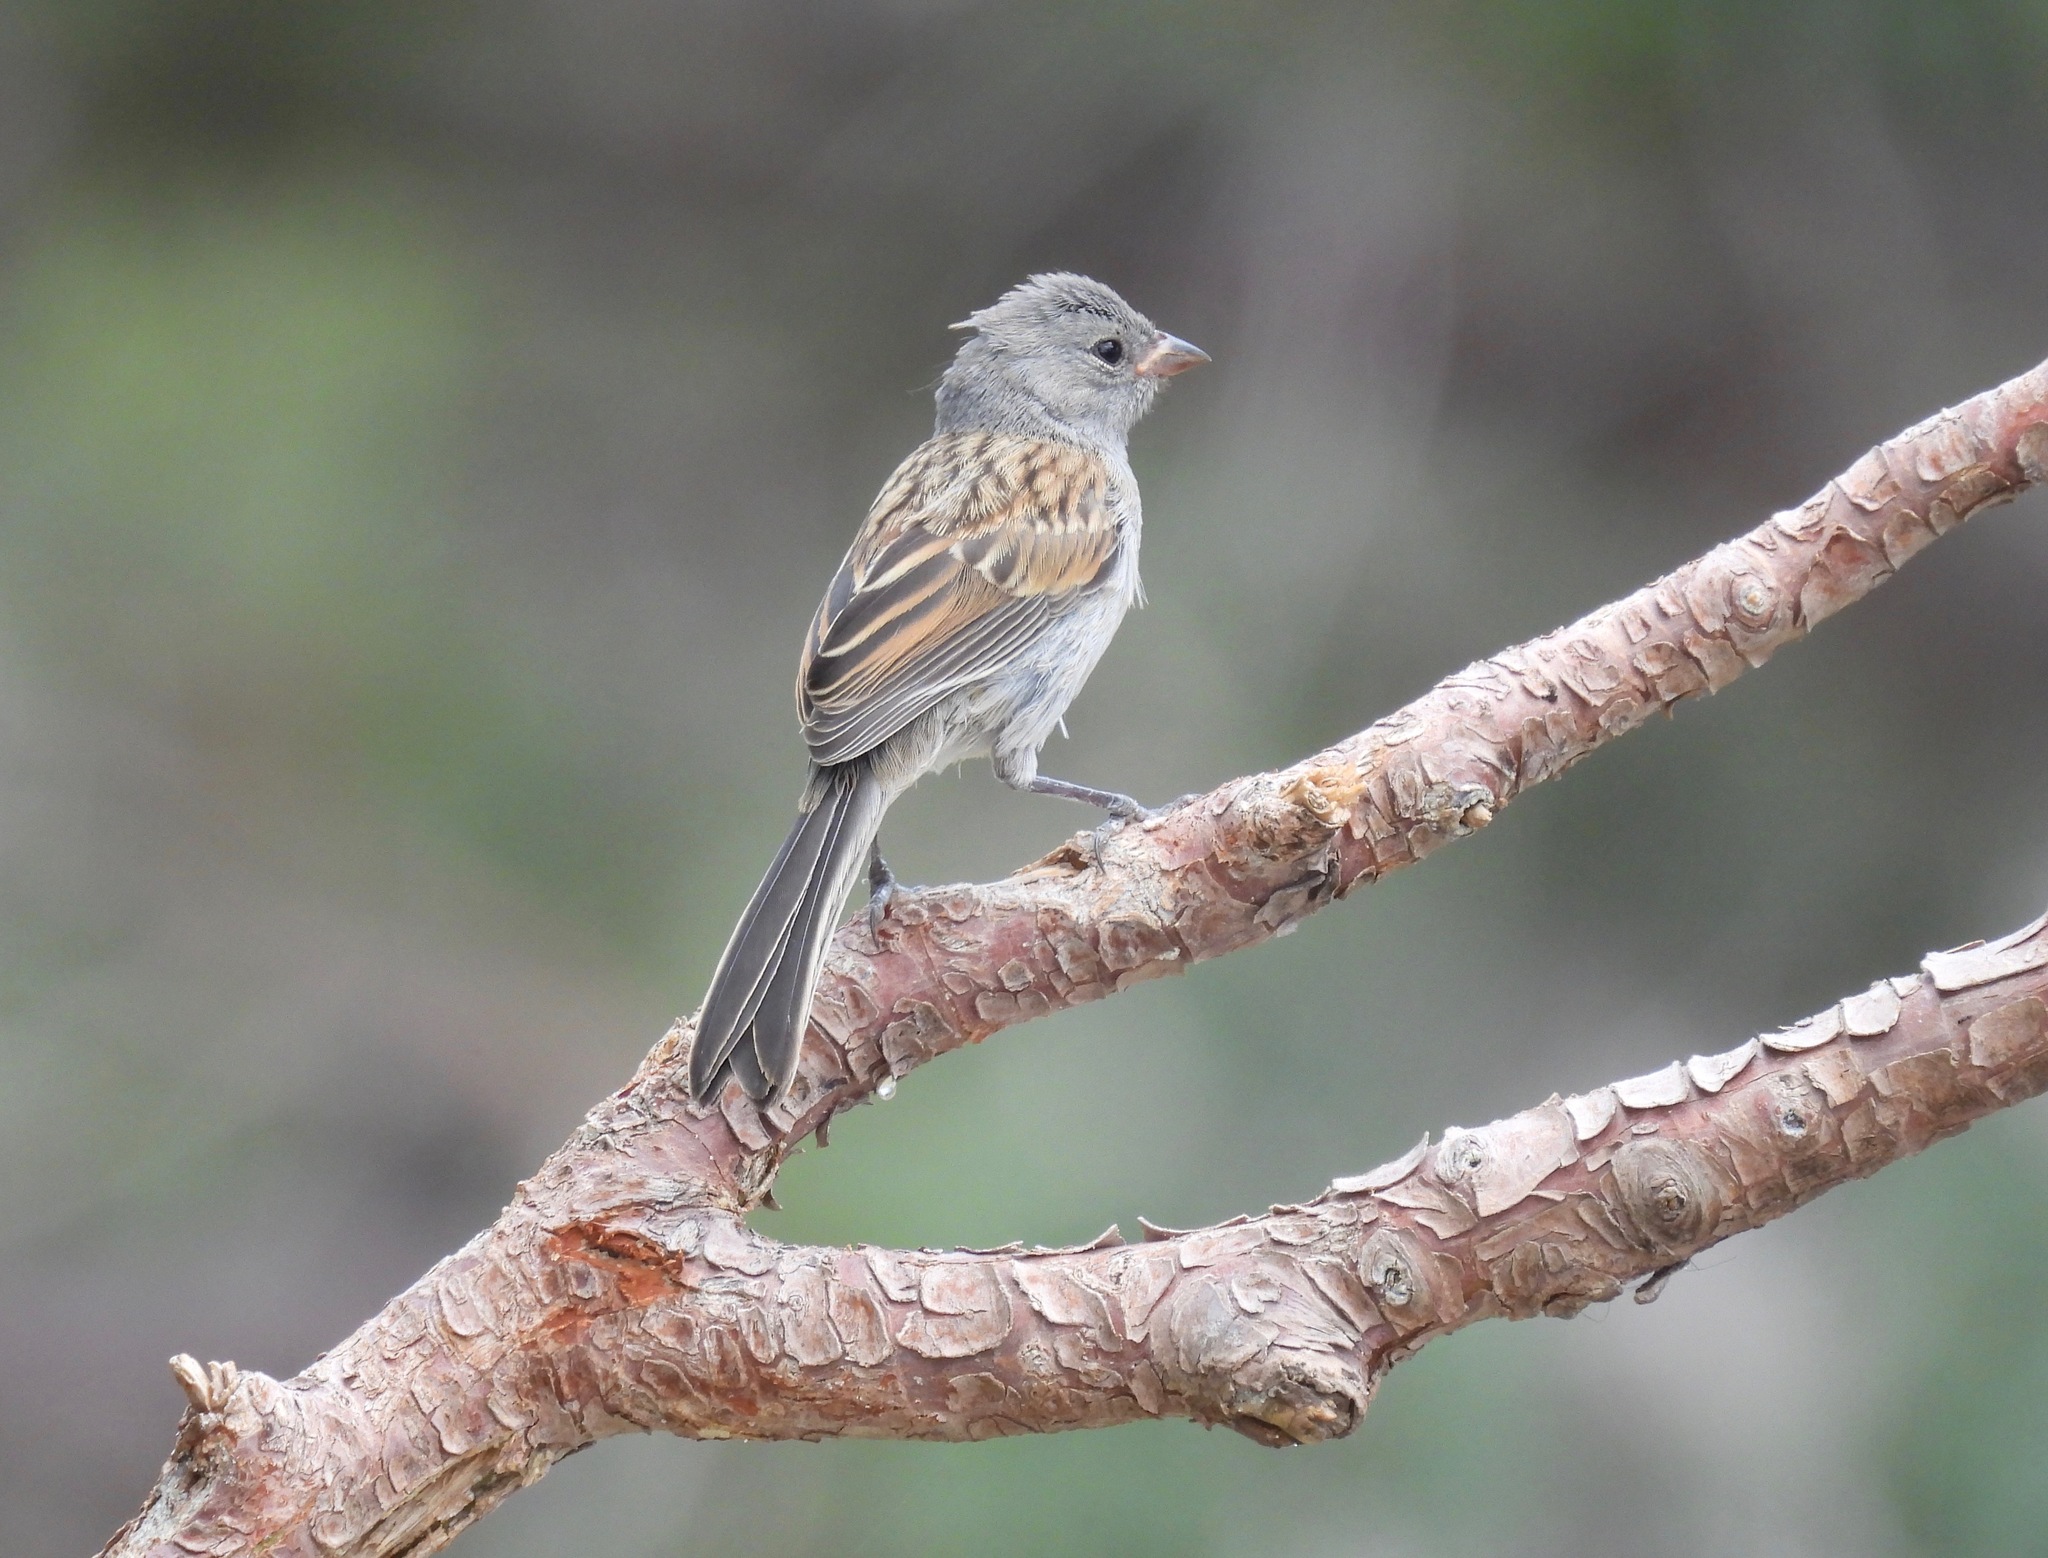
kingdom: Animalia
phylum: Chordata
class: Aves
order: Passeriformes
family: Passerellidae
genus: Spizella
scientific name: Spizella atrogularis
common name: Black-chinned sparrow
